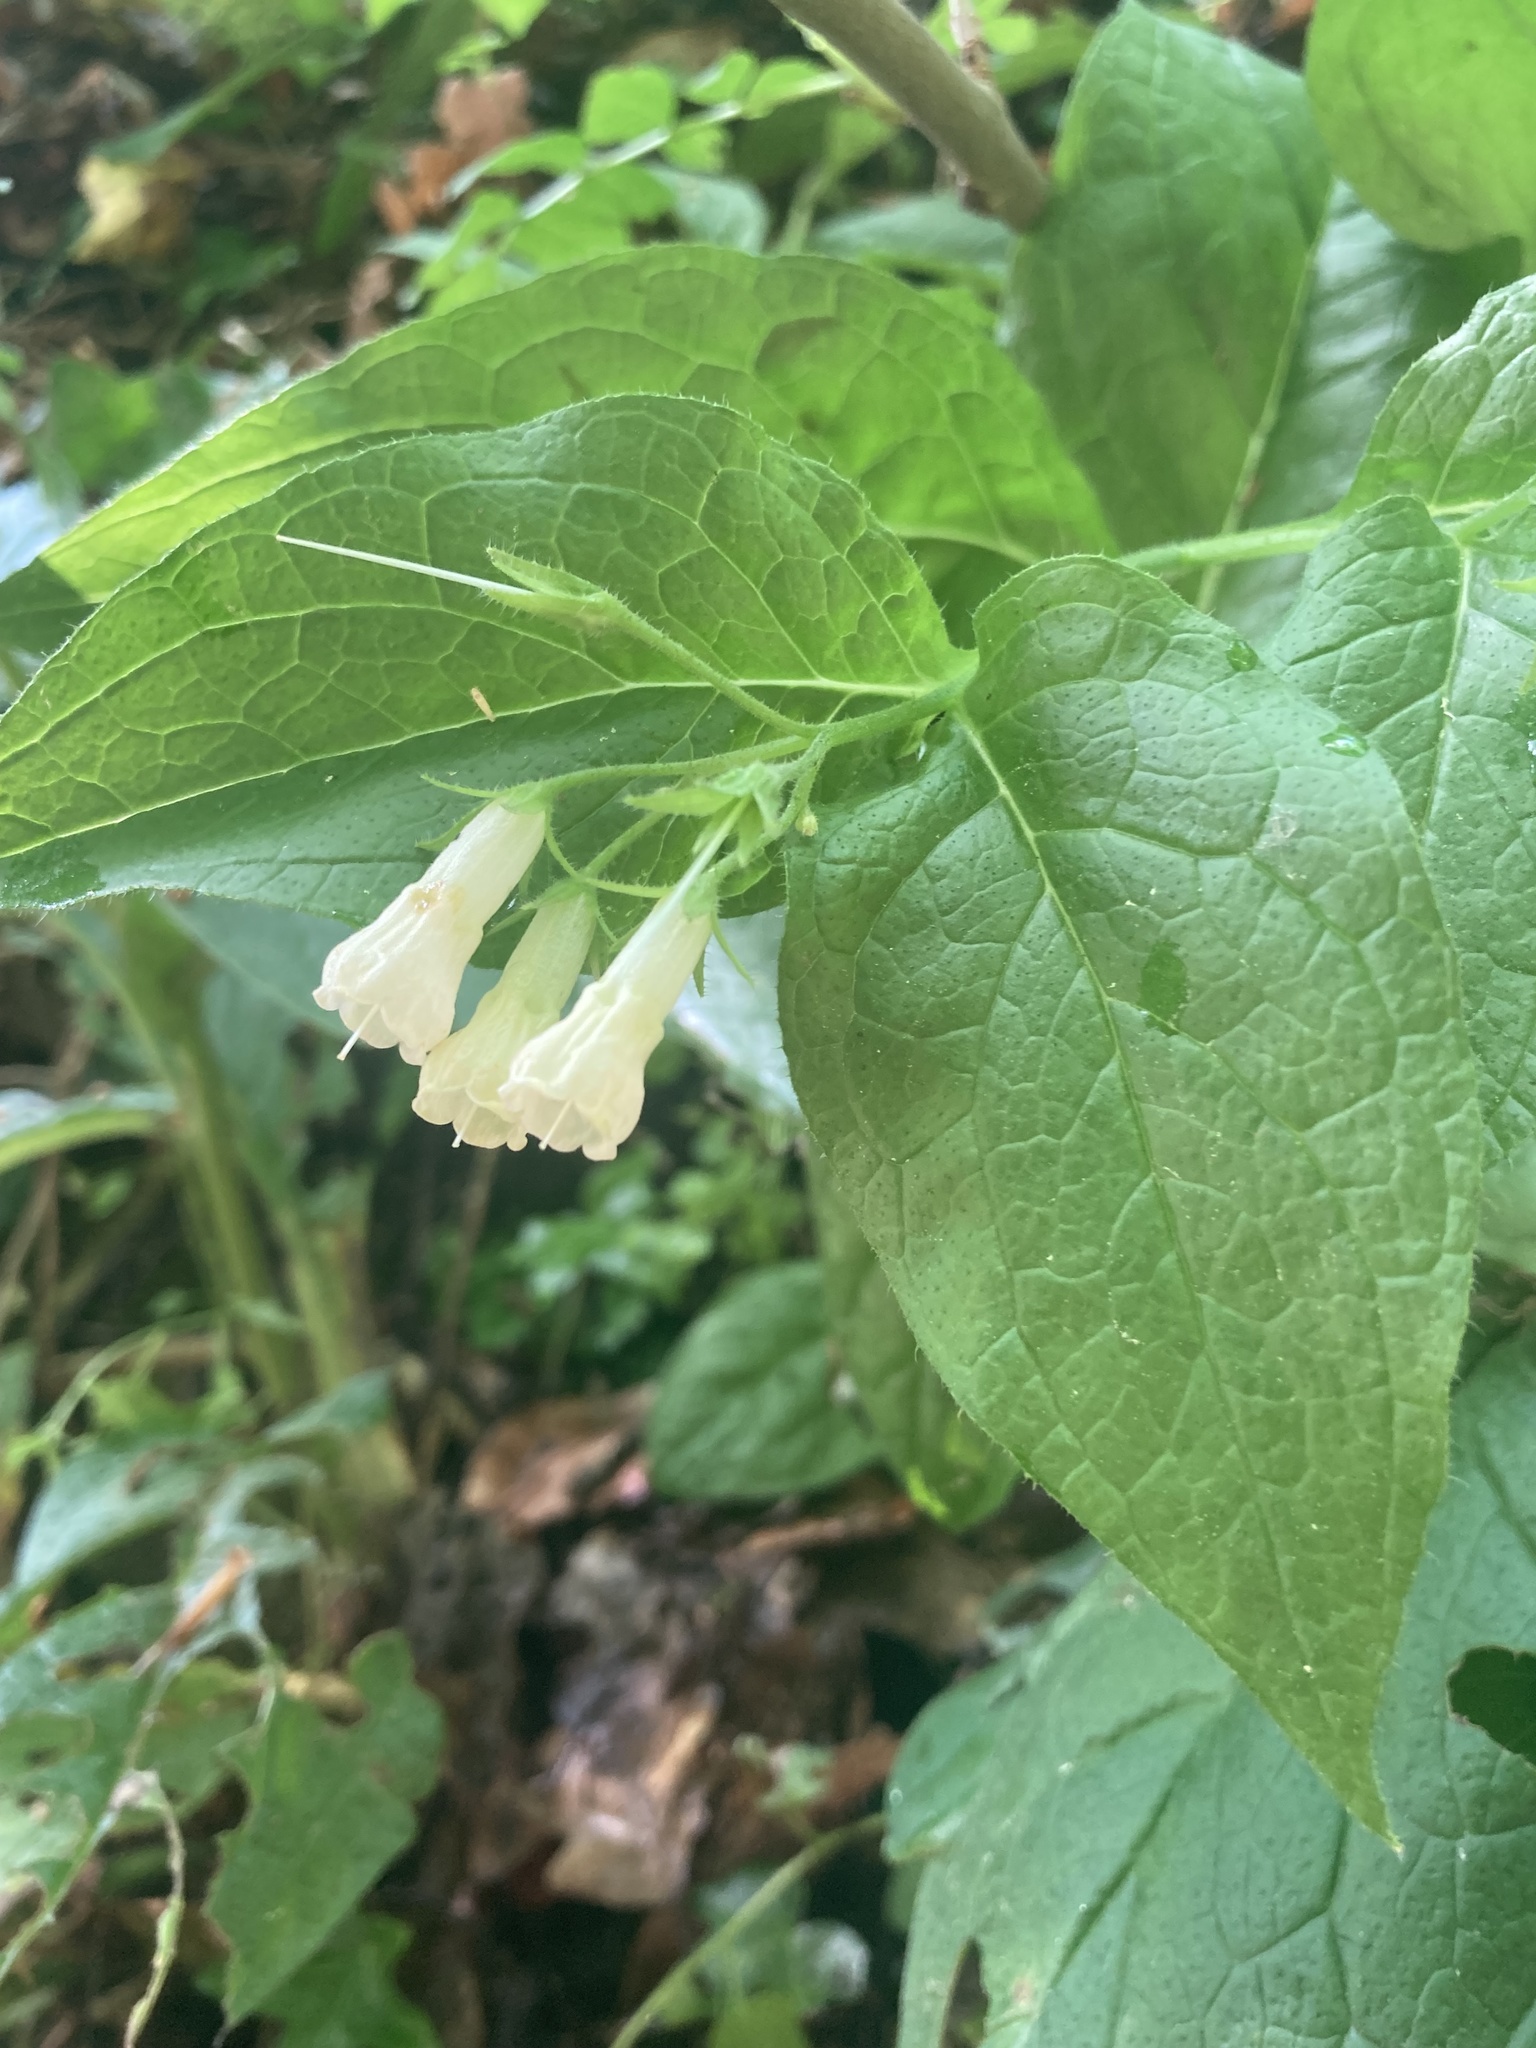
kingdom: Plantae
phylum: Tracheophyta
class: Magnoliopsida
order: Boraginales
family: Boraginaceae
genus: Symphytum
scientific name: Symphytum tuberosum
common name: Tuberous comfrey
